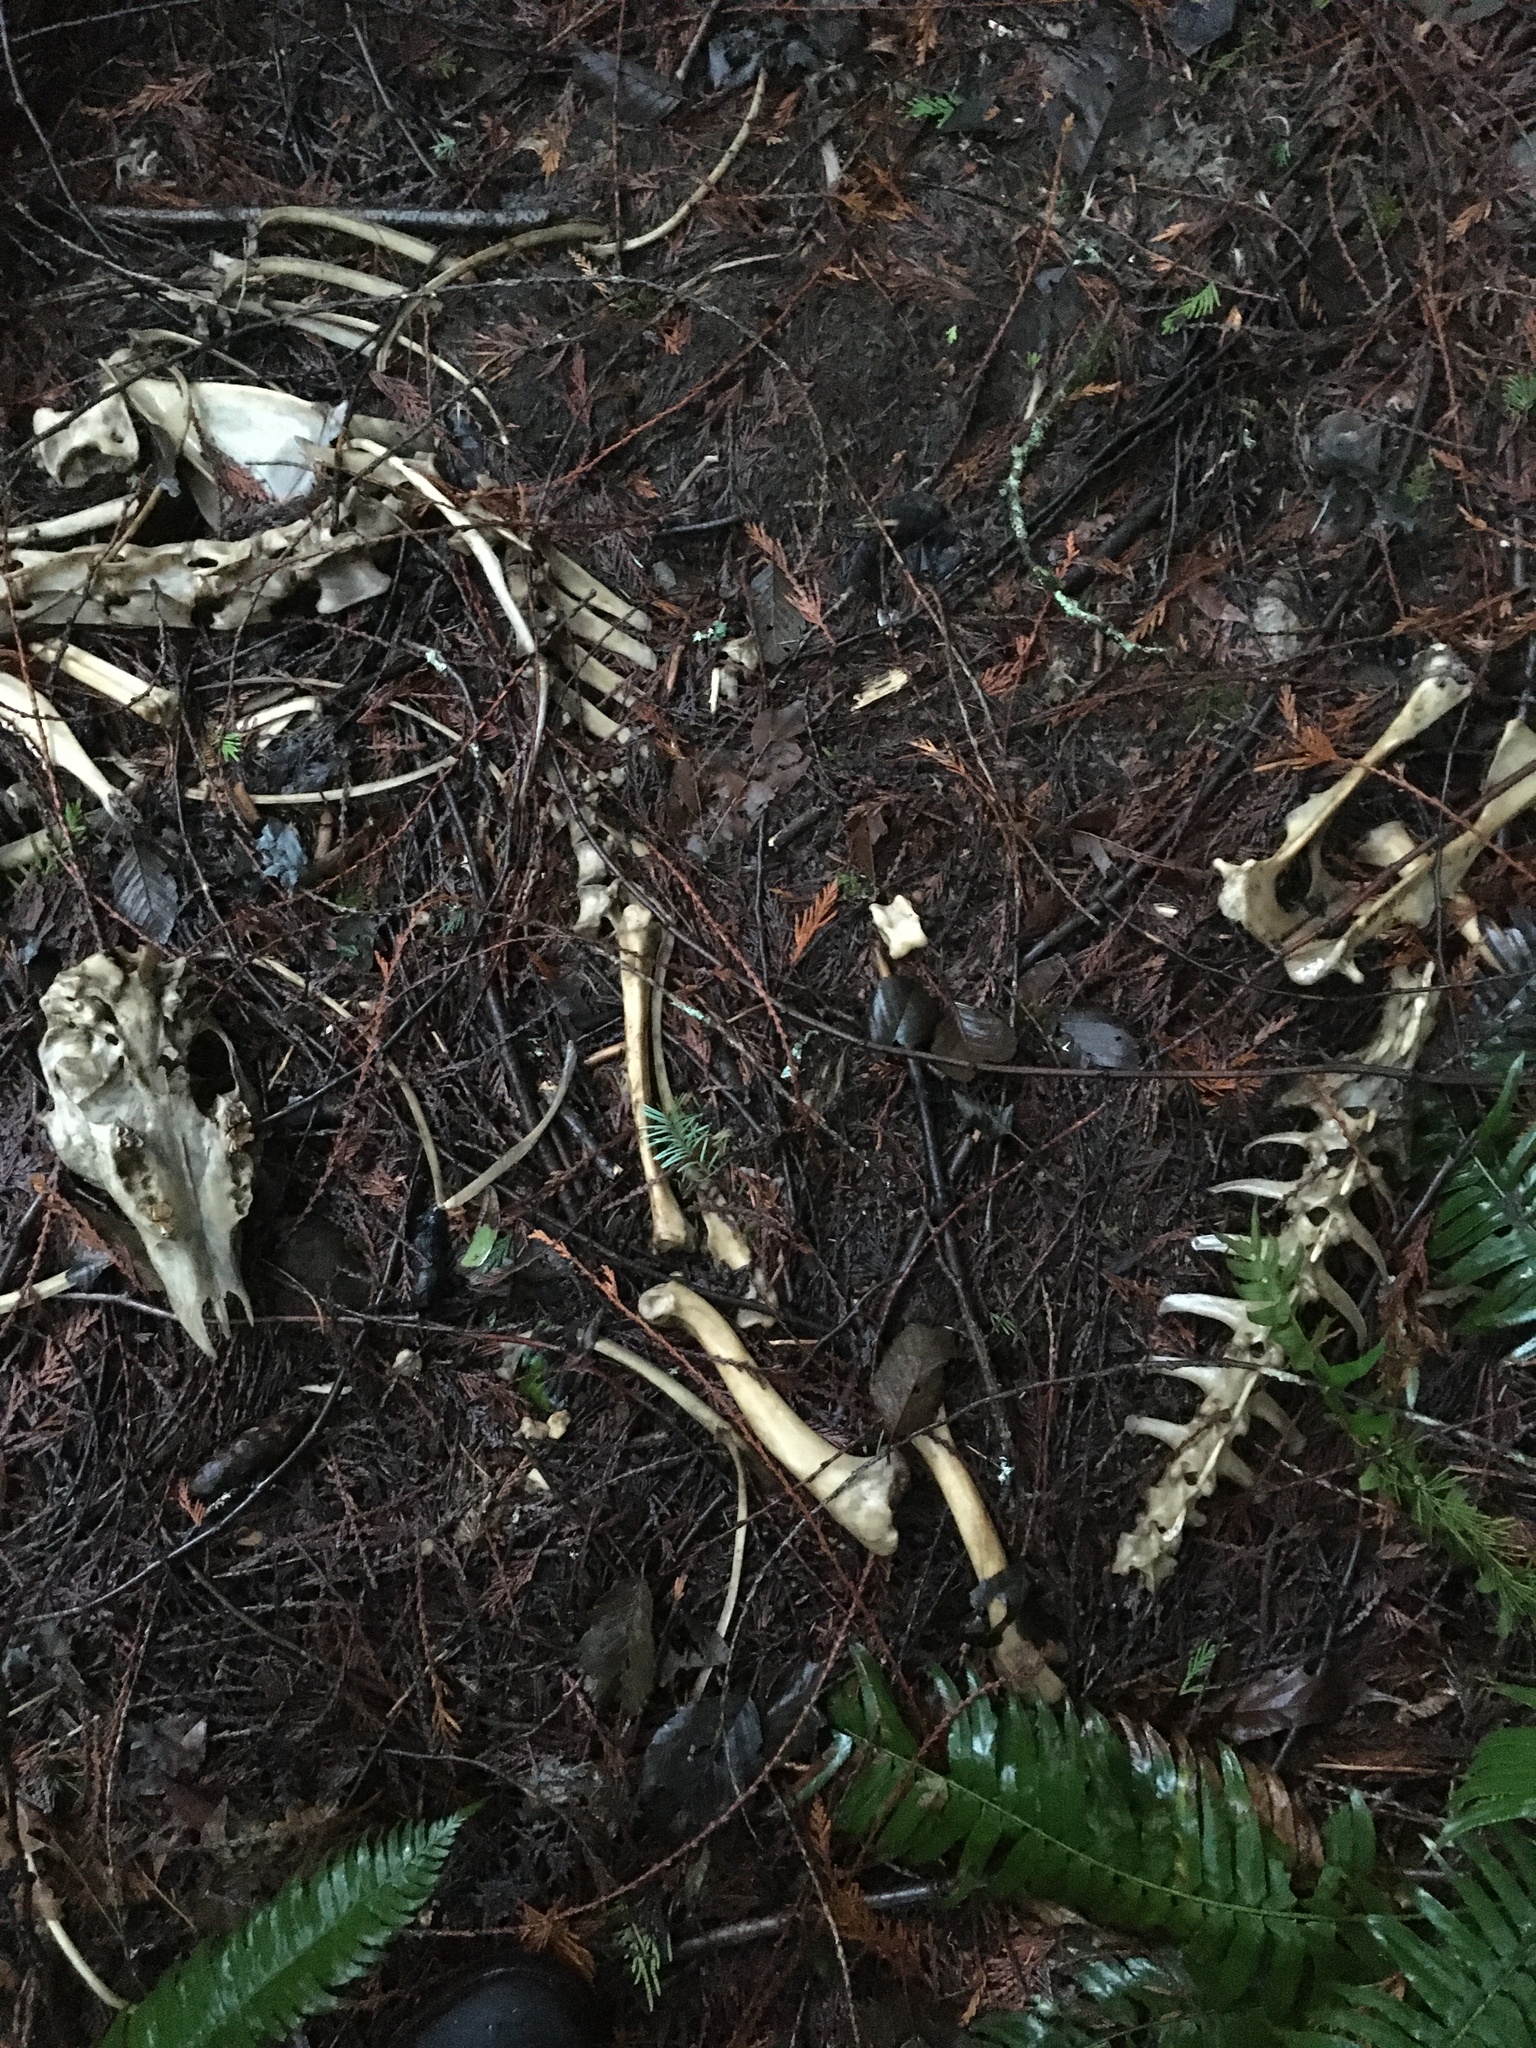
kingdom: Animalia
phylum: Chordata
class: Mammalia
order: Artiodactyla
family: Cervidae
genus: Odocoileus
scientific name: Odocoileus hemionus
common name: Mule deer
